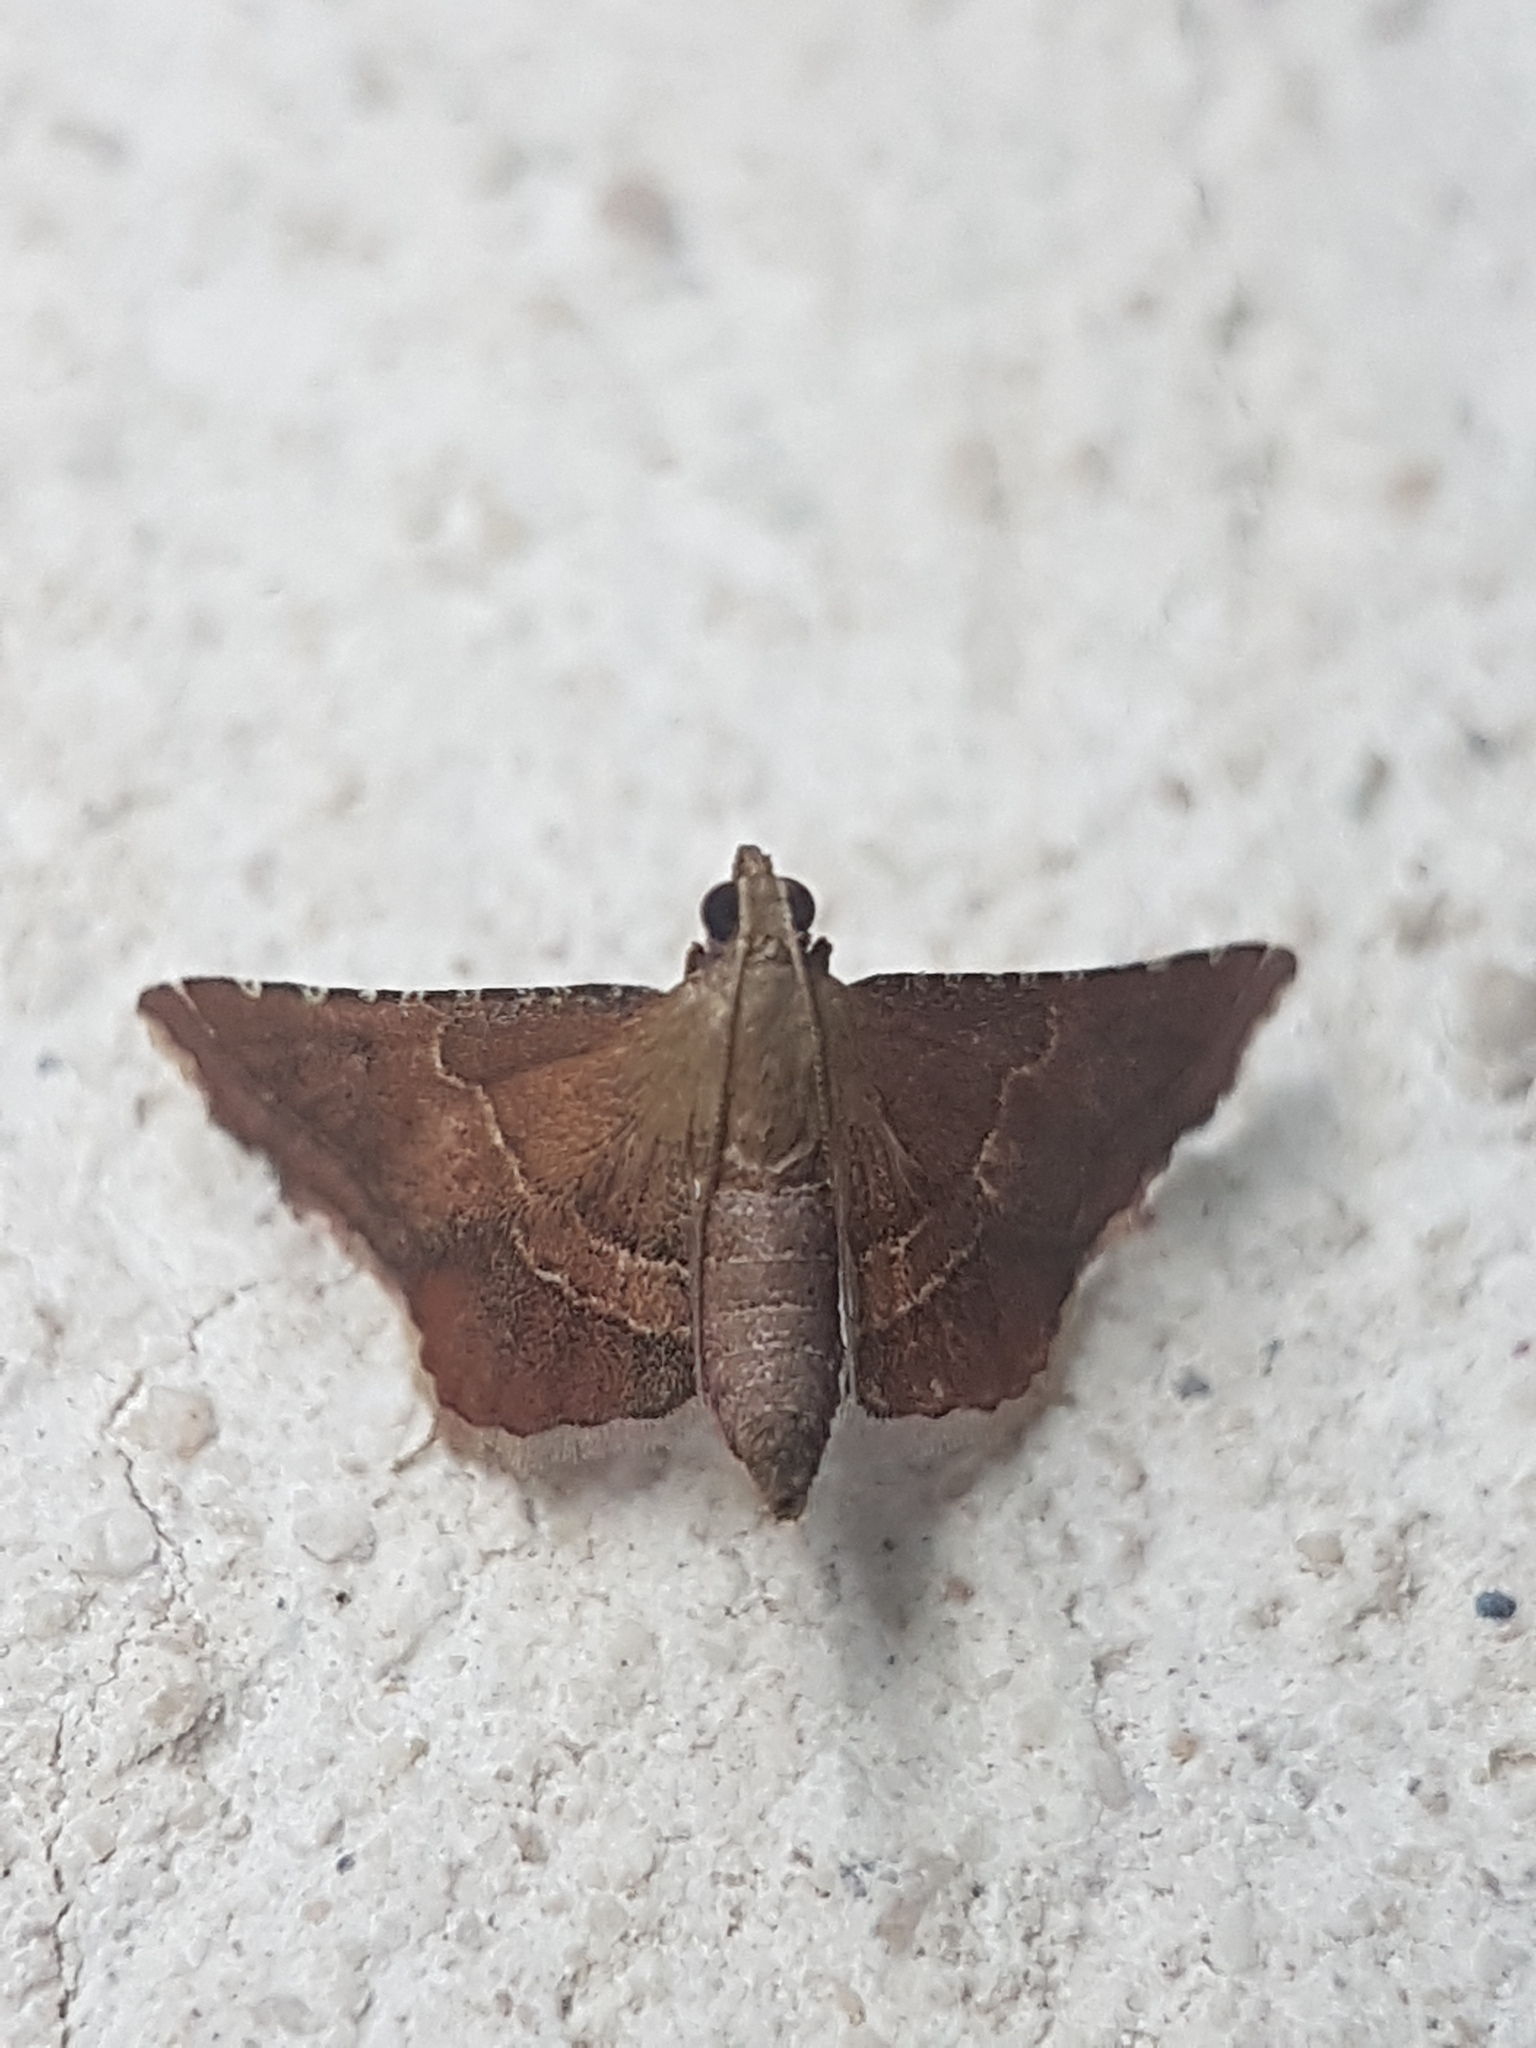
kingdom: Animalia
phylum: Arthropoda
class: Insecta
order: Lepidoptera
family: Pyralidae
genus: Endotricha
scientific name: Endotricha flammealis
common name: Rosy tabby
